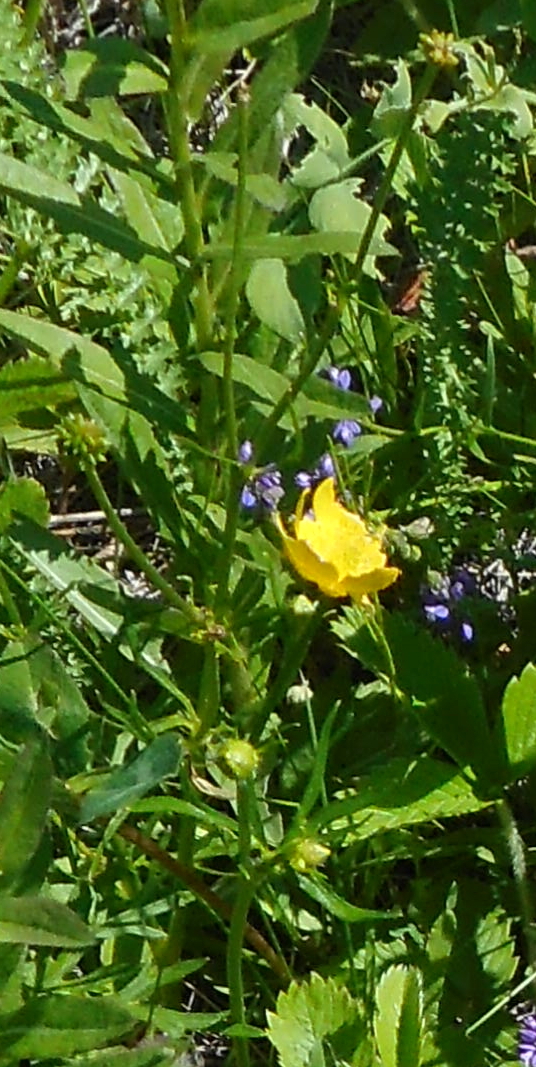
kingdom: Plantae
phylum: Tracheophyta
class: Magnoliopsida
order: Ranunculales
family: Ranunculaceae
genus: Ranunculus
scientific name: Ranunculus polyanthemos
